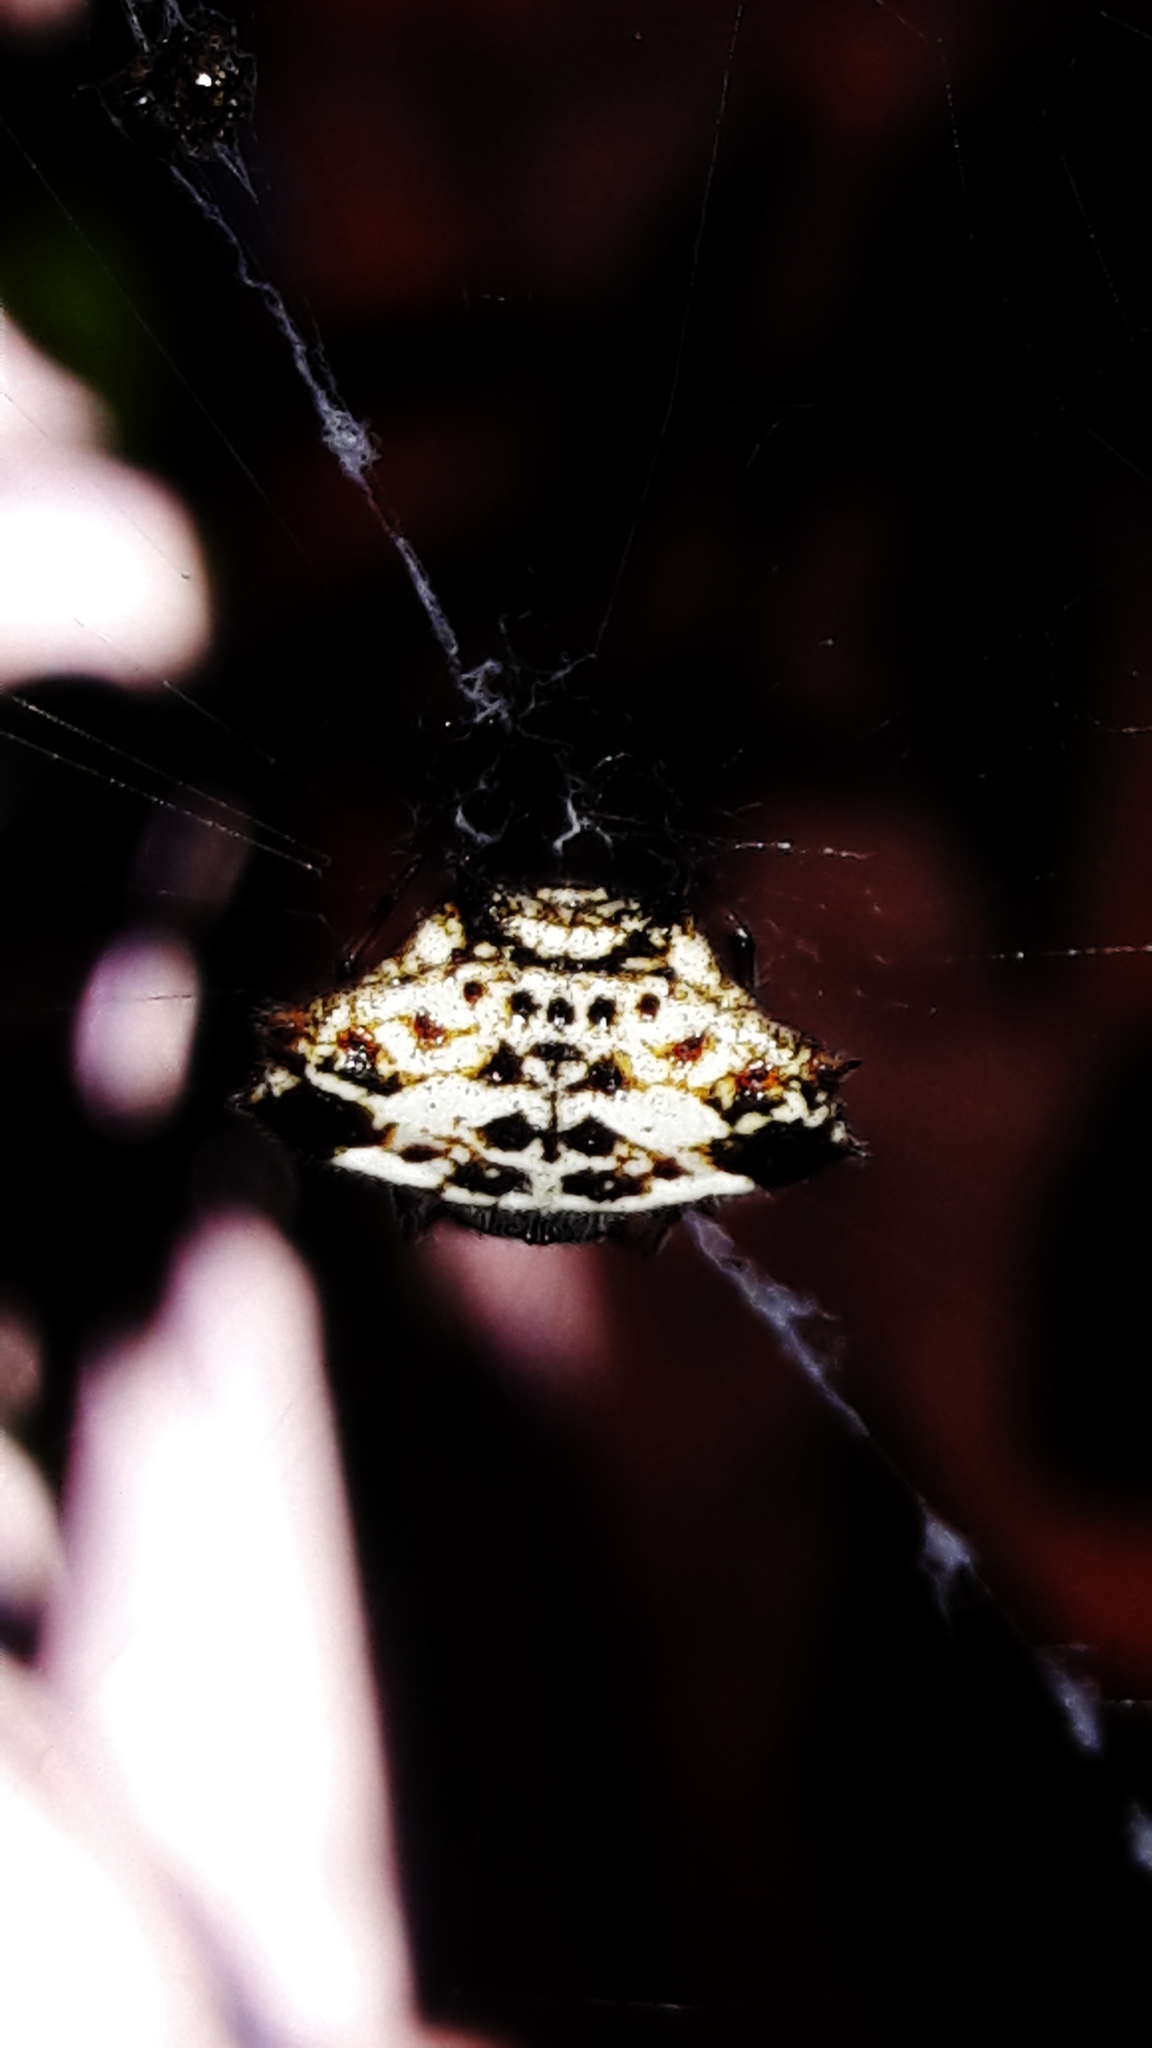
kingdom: Animalia
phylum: Arthropoda
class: Arachnida
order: Araneae
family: Araneidae
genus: Gasteracantha
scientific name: Gasteracantha cancriformis
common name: Orb weavers
